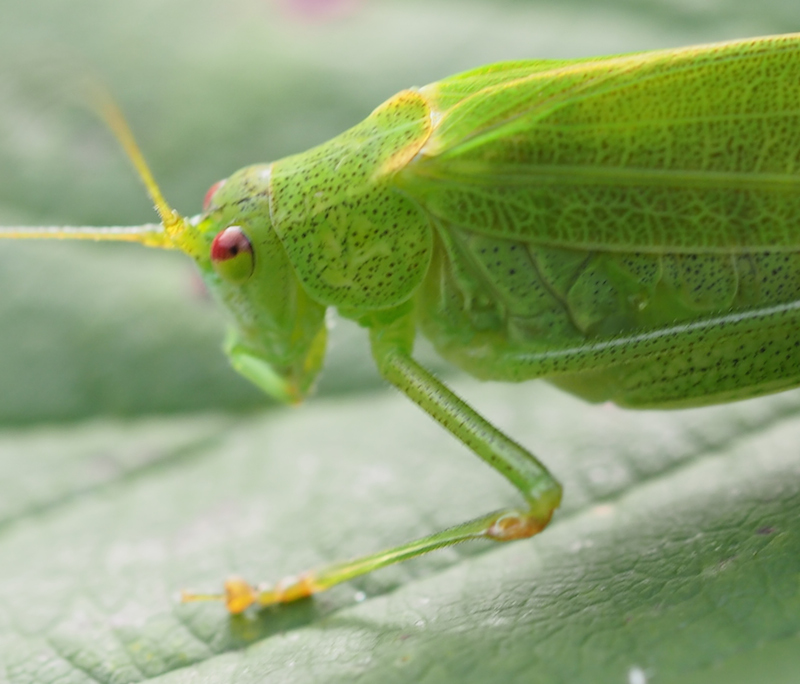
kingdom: Animalia
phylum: Arthropoda
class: Insecta
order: Orthoptera
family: Tettigoniidae
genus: Phaneroptera
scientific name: Phaneroptera falcata
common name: Sickle-bearing bush-cricket
